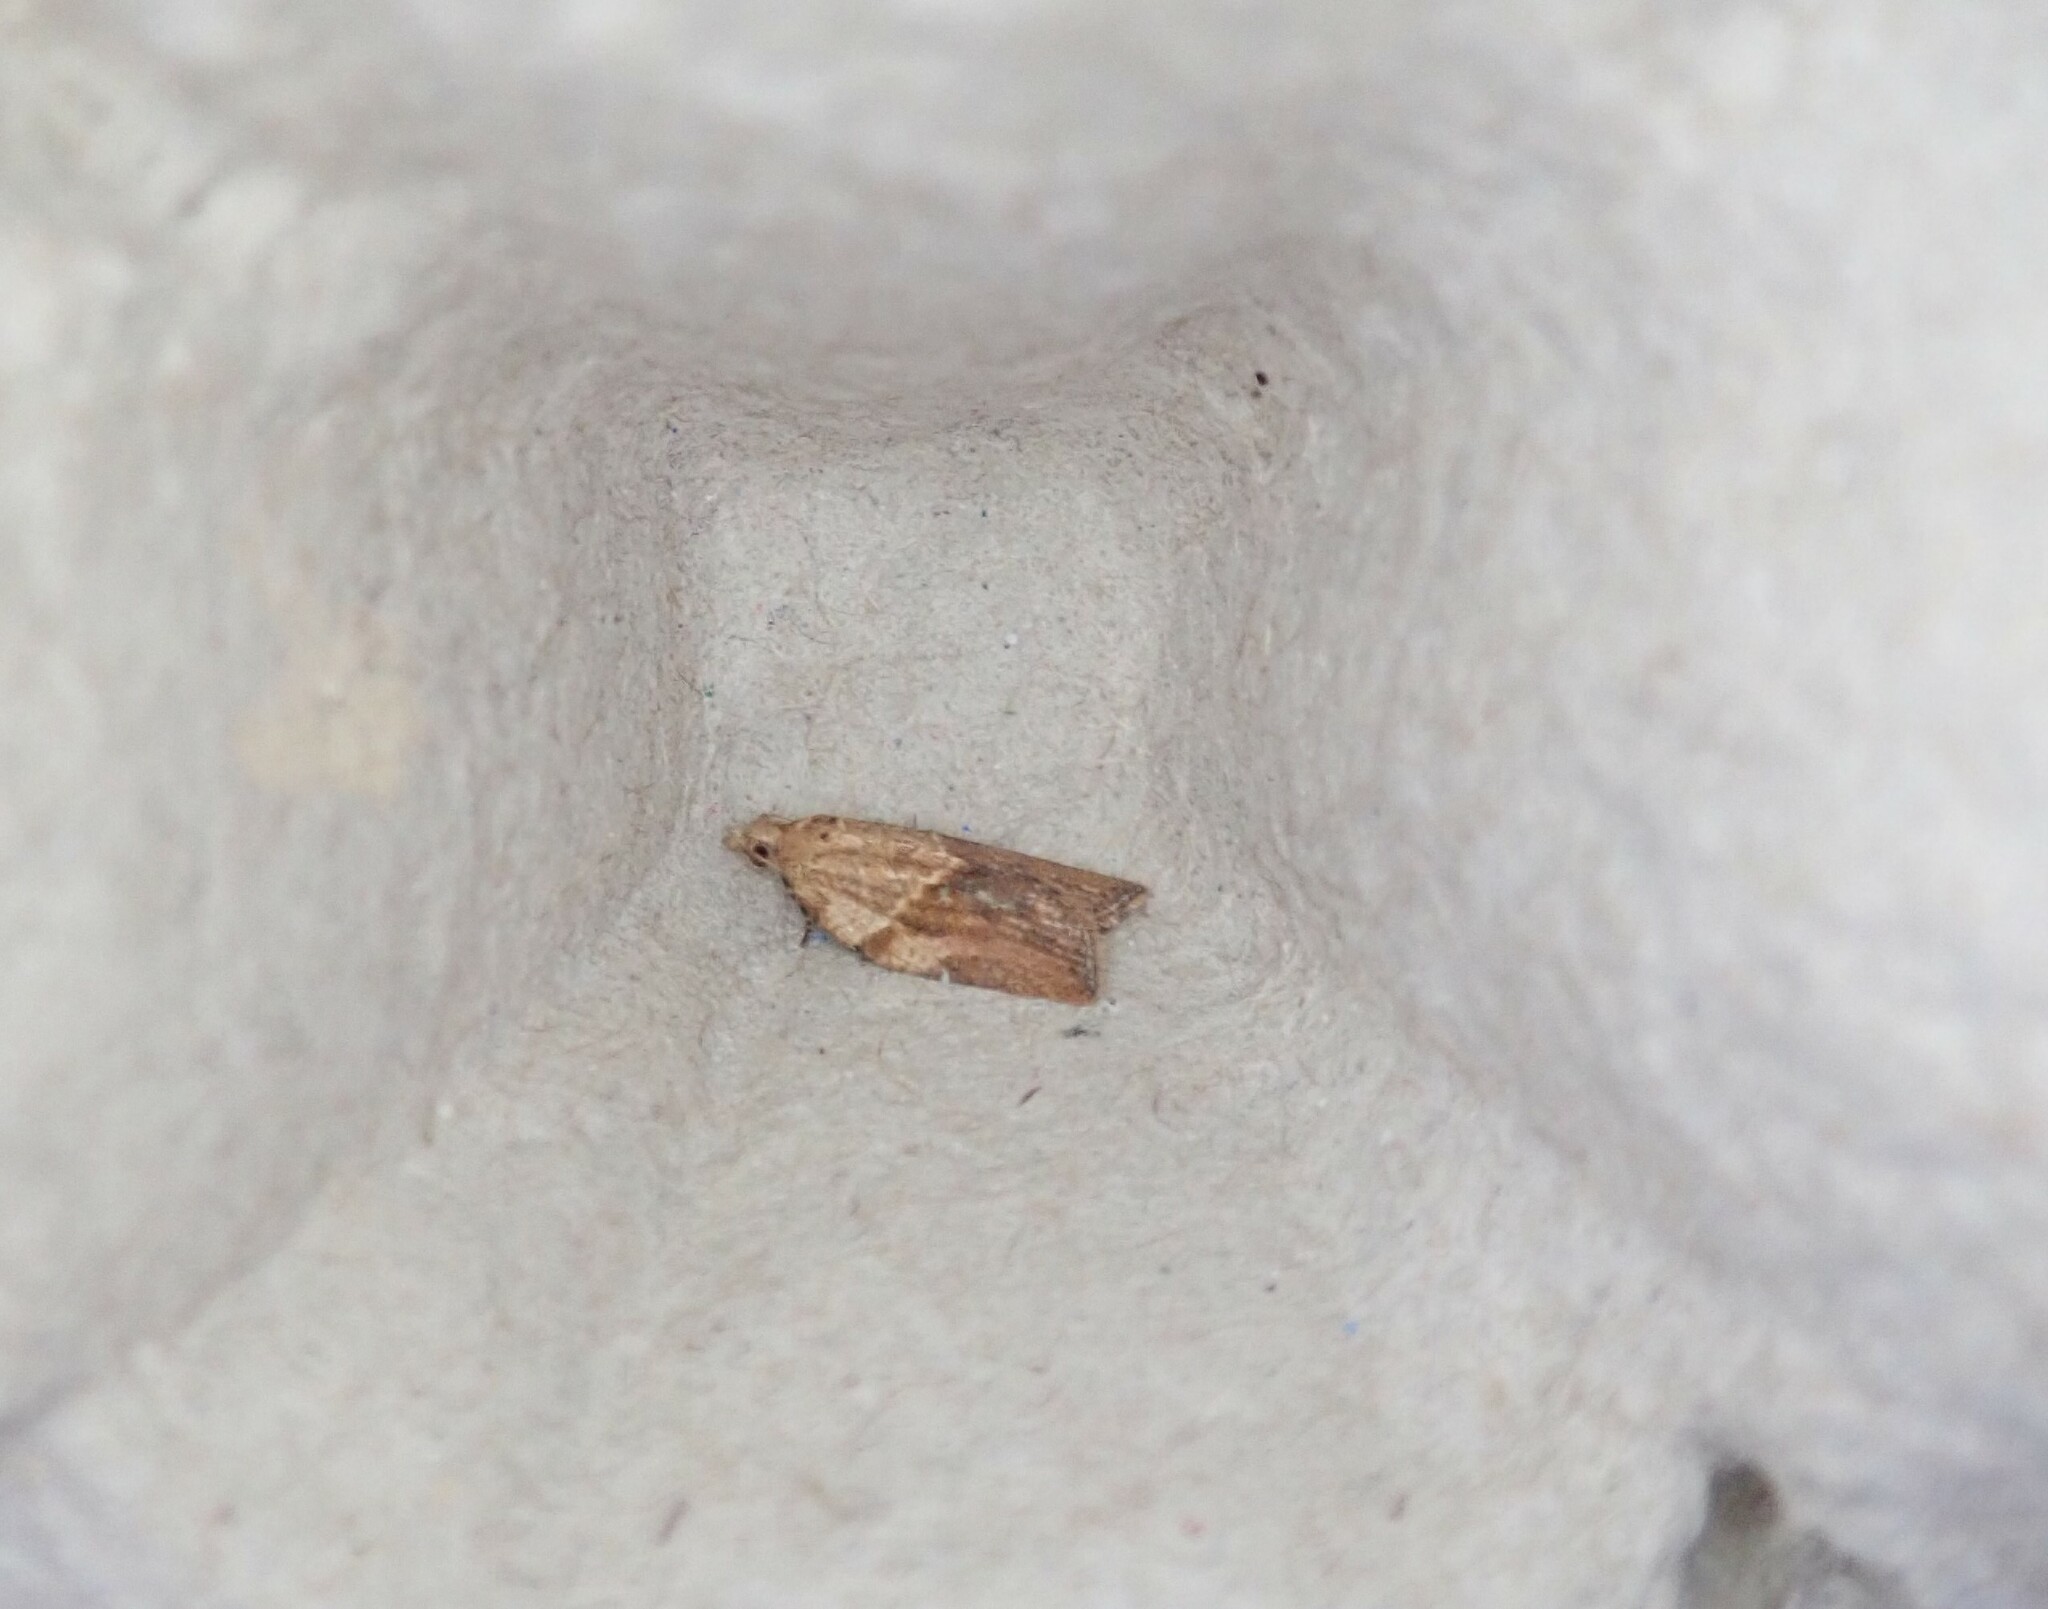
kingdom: Animalia
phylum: Arthropoda
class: Insecta
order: Lepidoptera
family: Tortricidae
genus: Epiphyas
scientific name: Epiphyas postvittana
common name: Light brown apple moth
